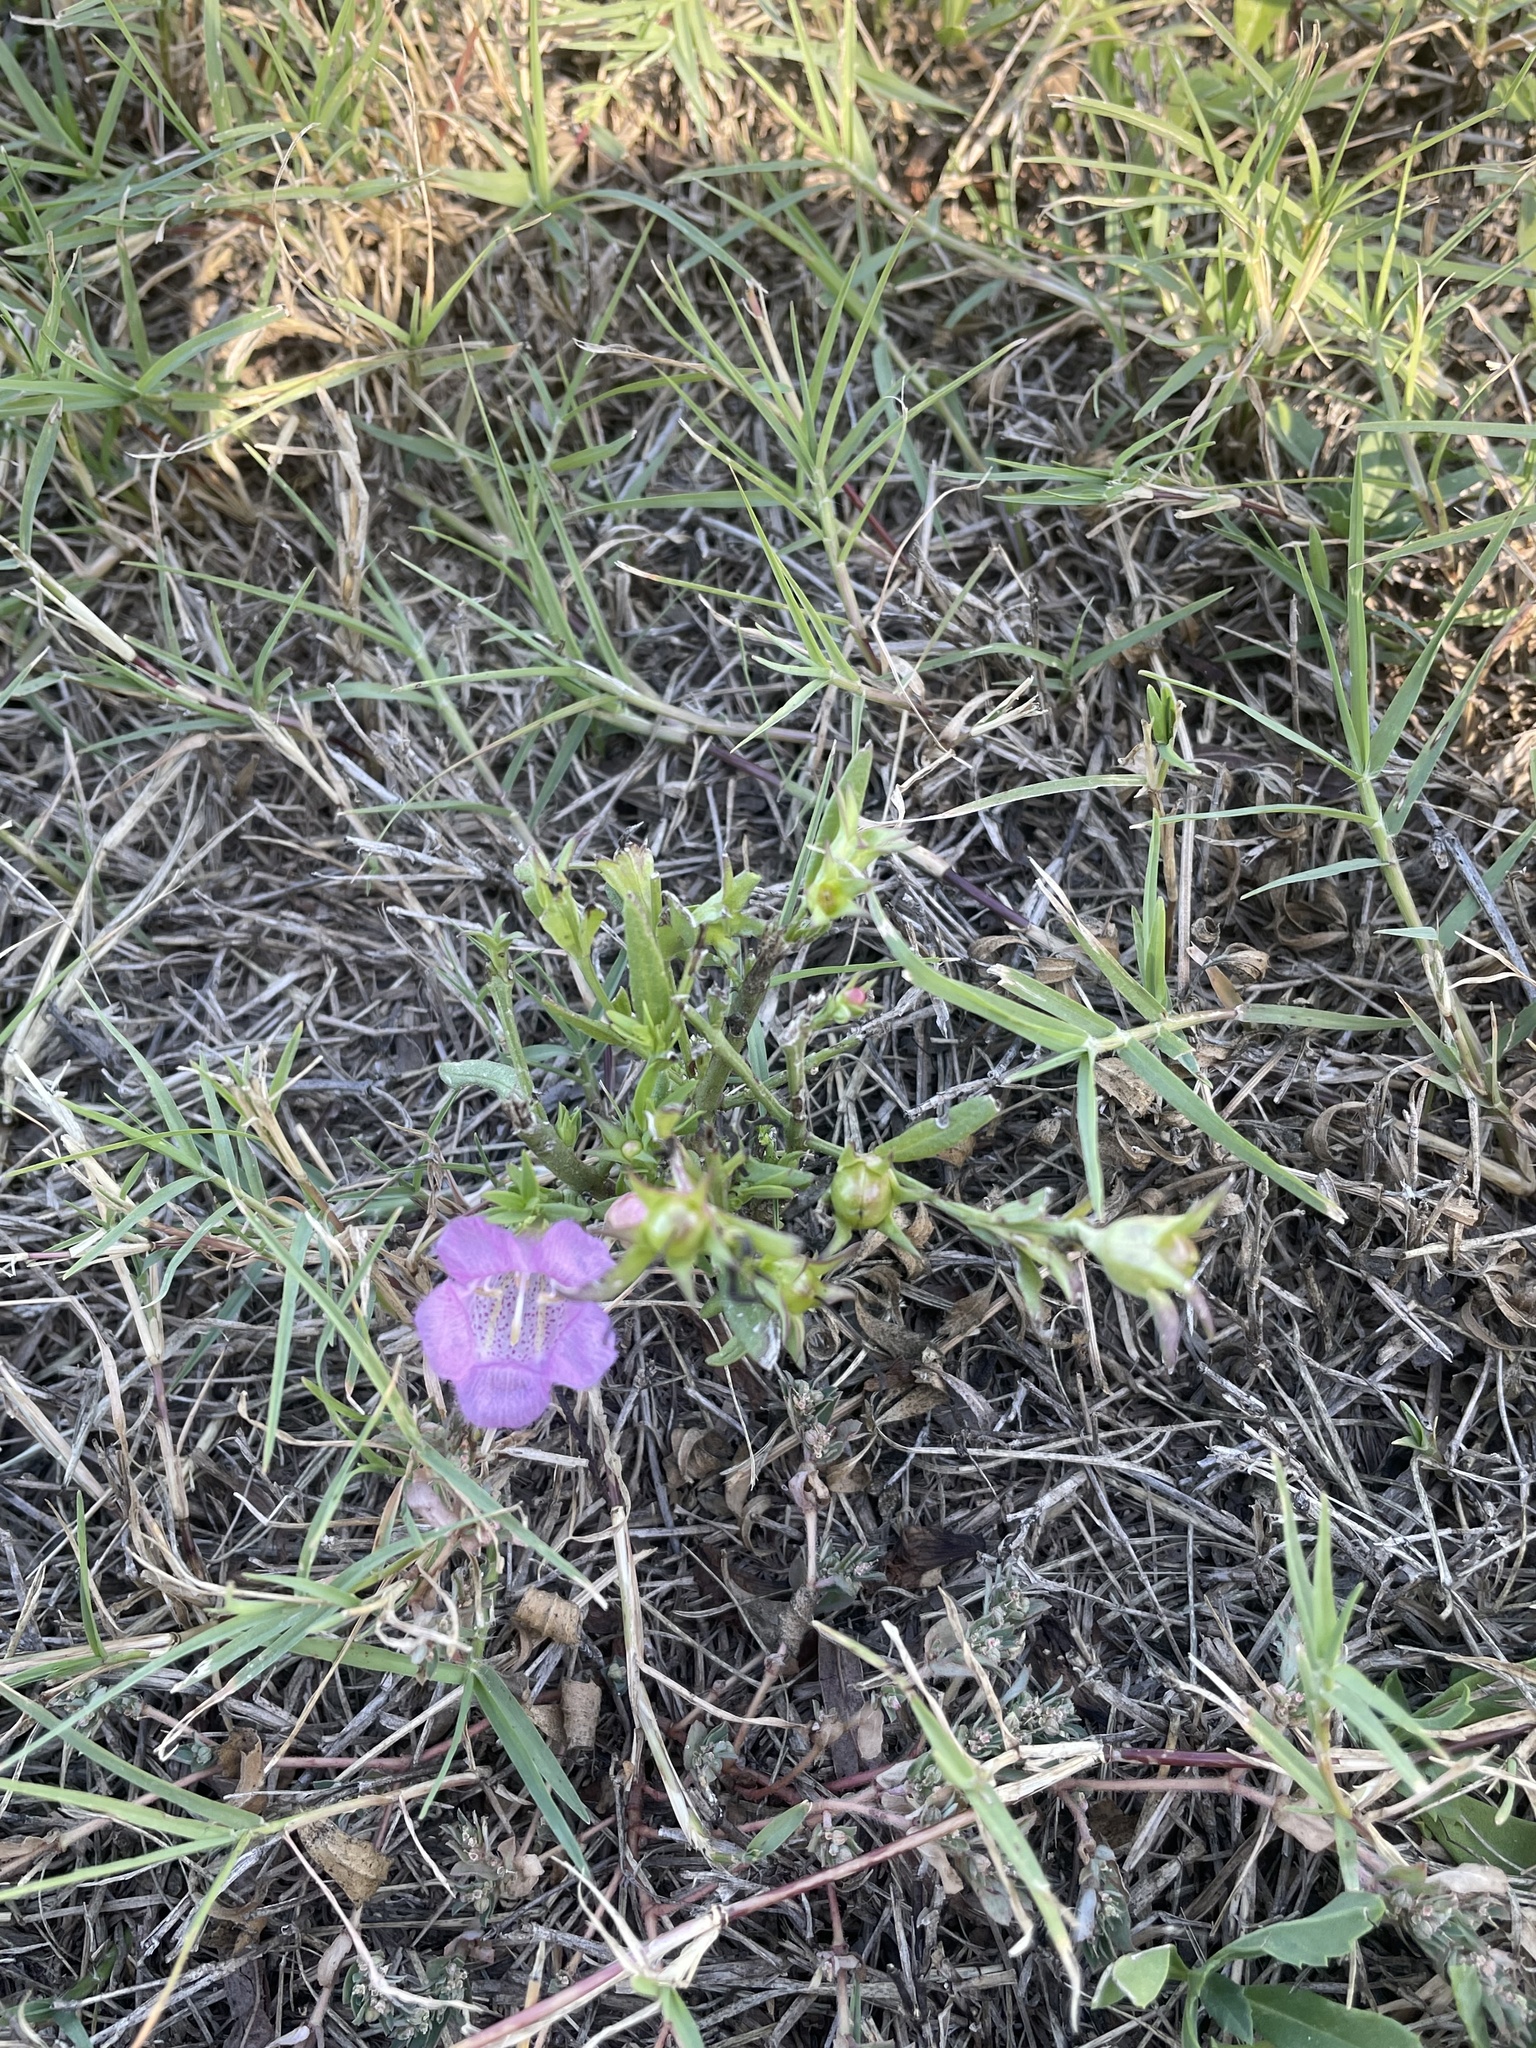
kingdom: Plantae
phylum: Tracheophyta
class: Magnoliopsida
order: Lamiales
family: Orobanchaceae
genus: Agalinis
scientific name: Agalinis heterophylla
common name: Prairie agalinis
